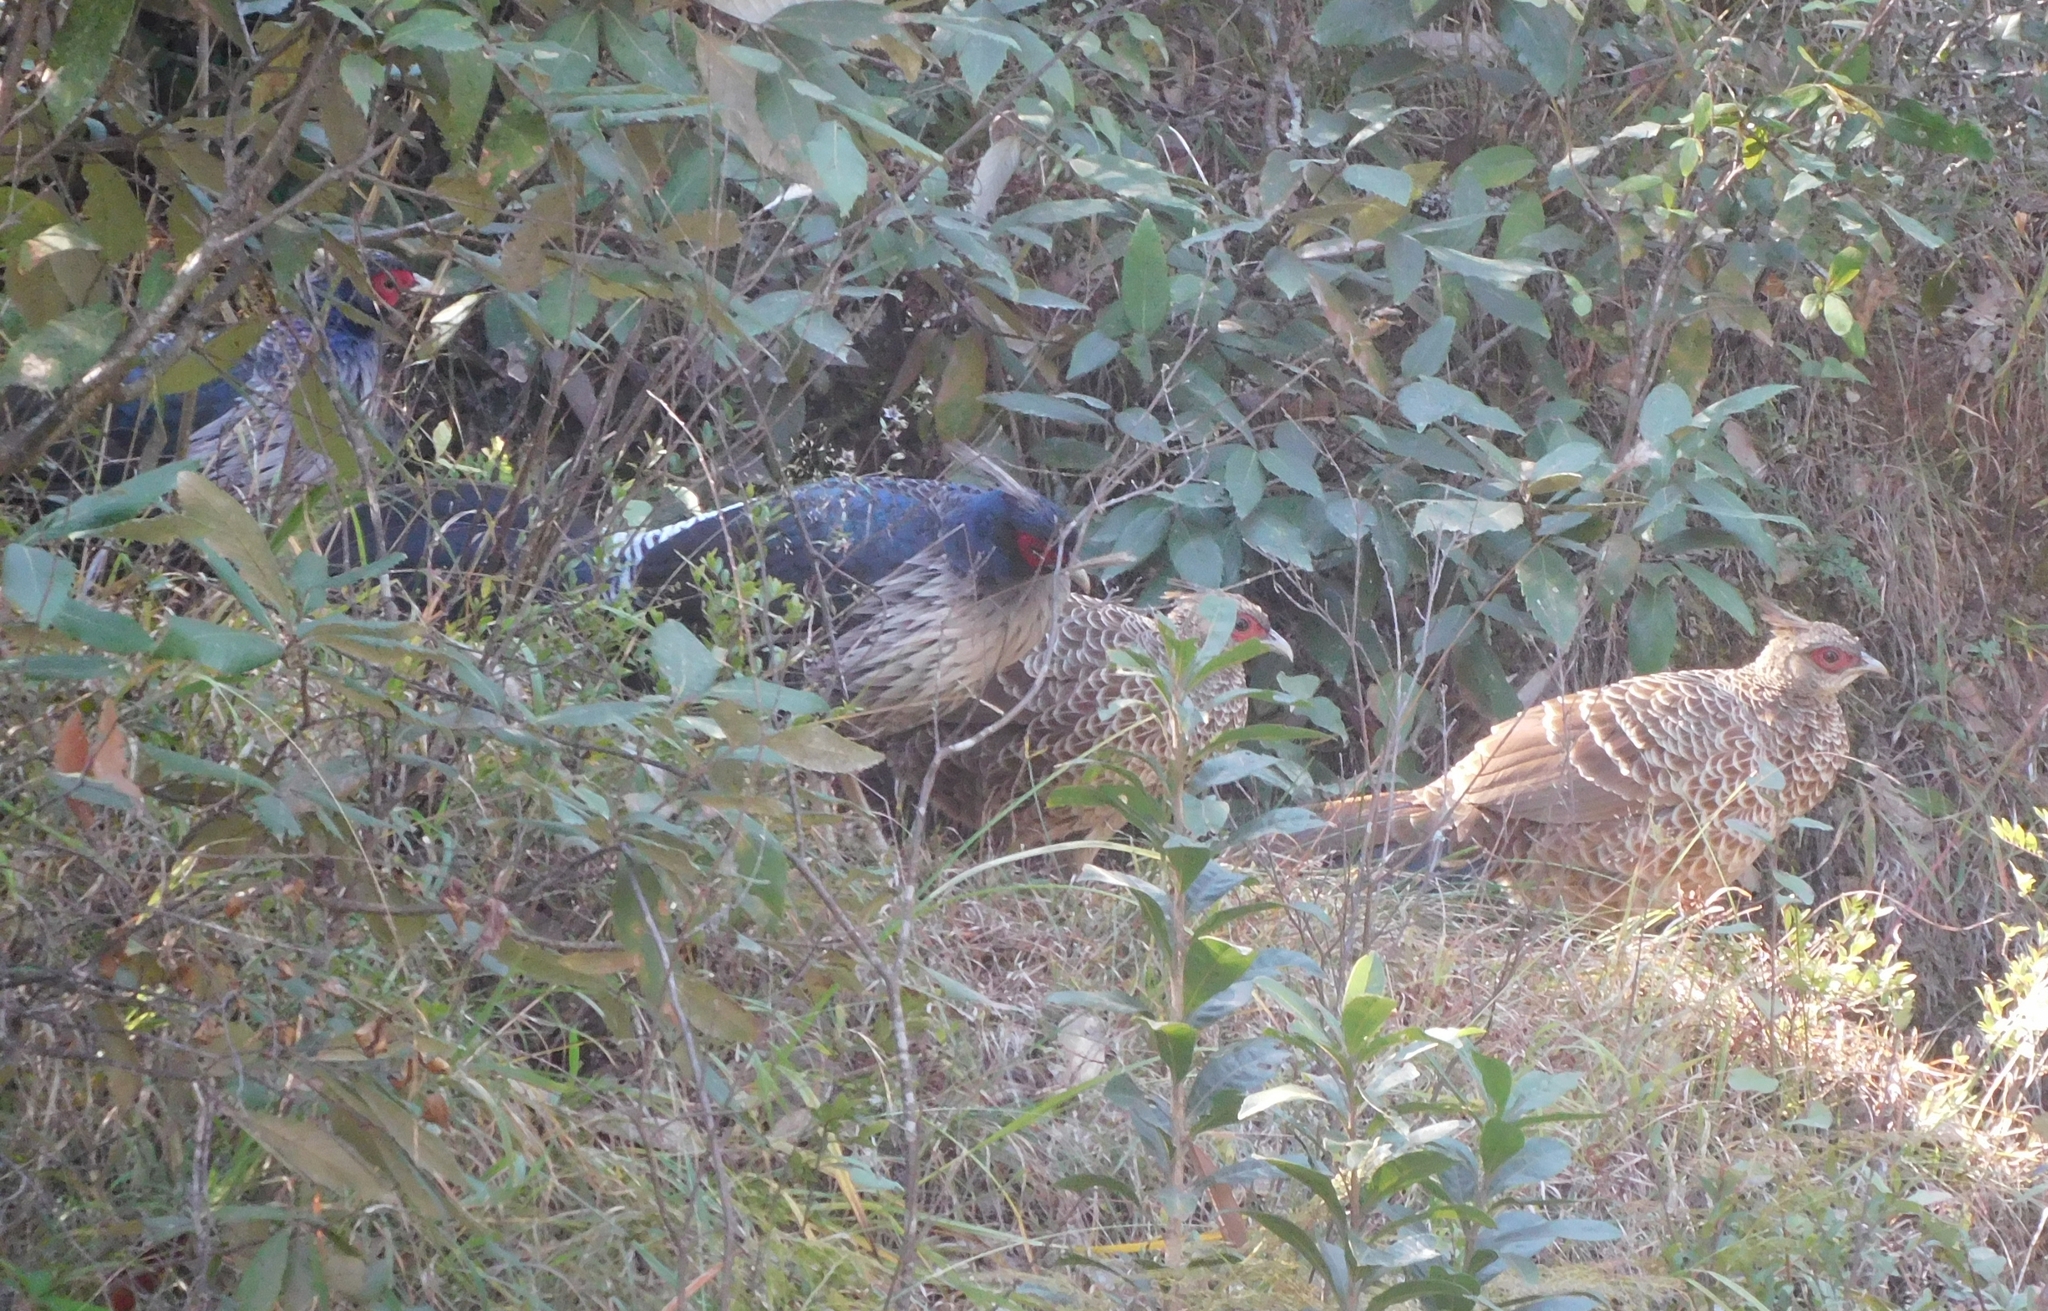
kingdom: Animalia
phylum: Chordata
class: Aves
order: Galliformes
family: Phasianidae
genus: Lophura
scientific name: Lophura leucomelanos
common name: Kalij pheasant
